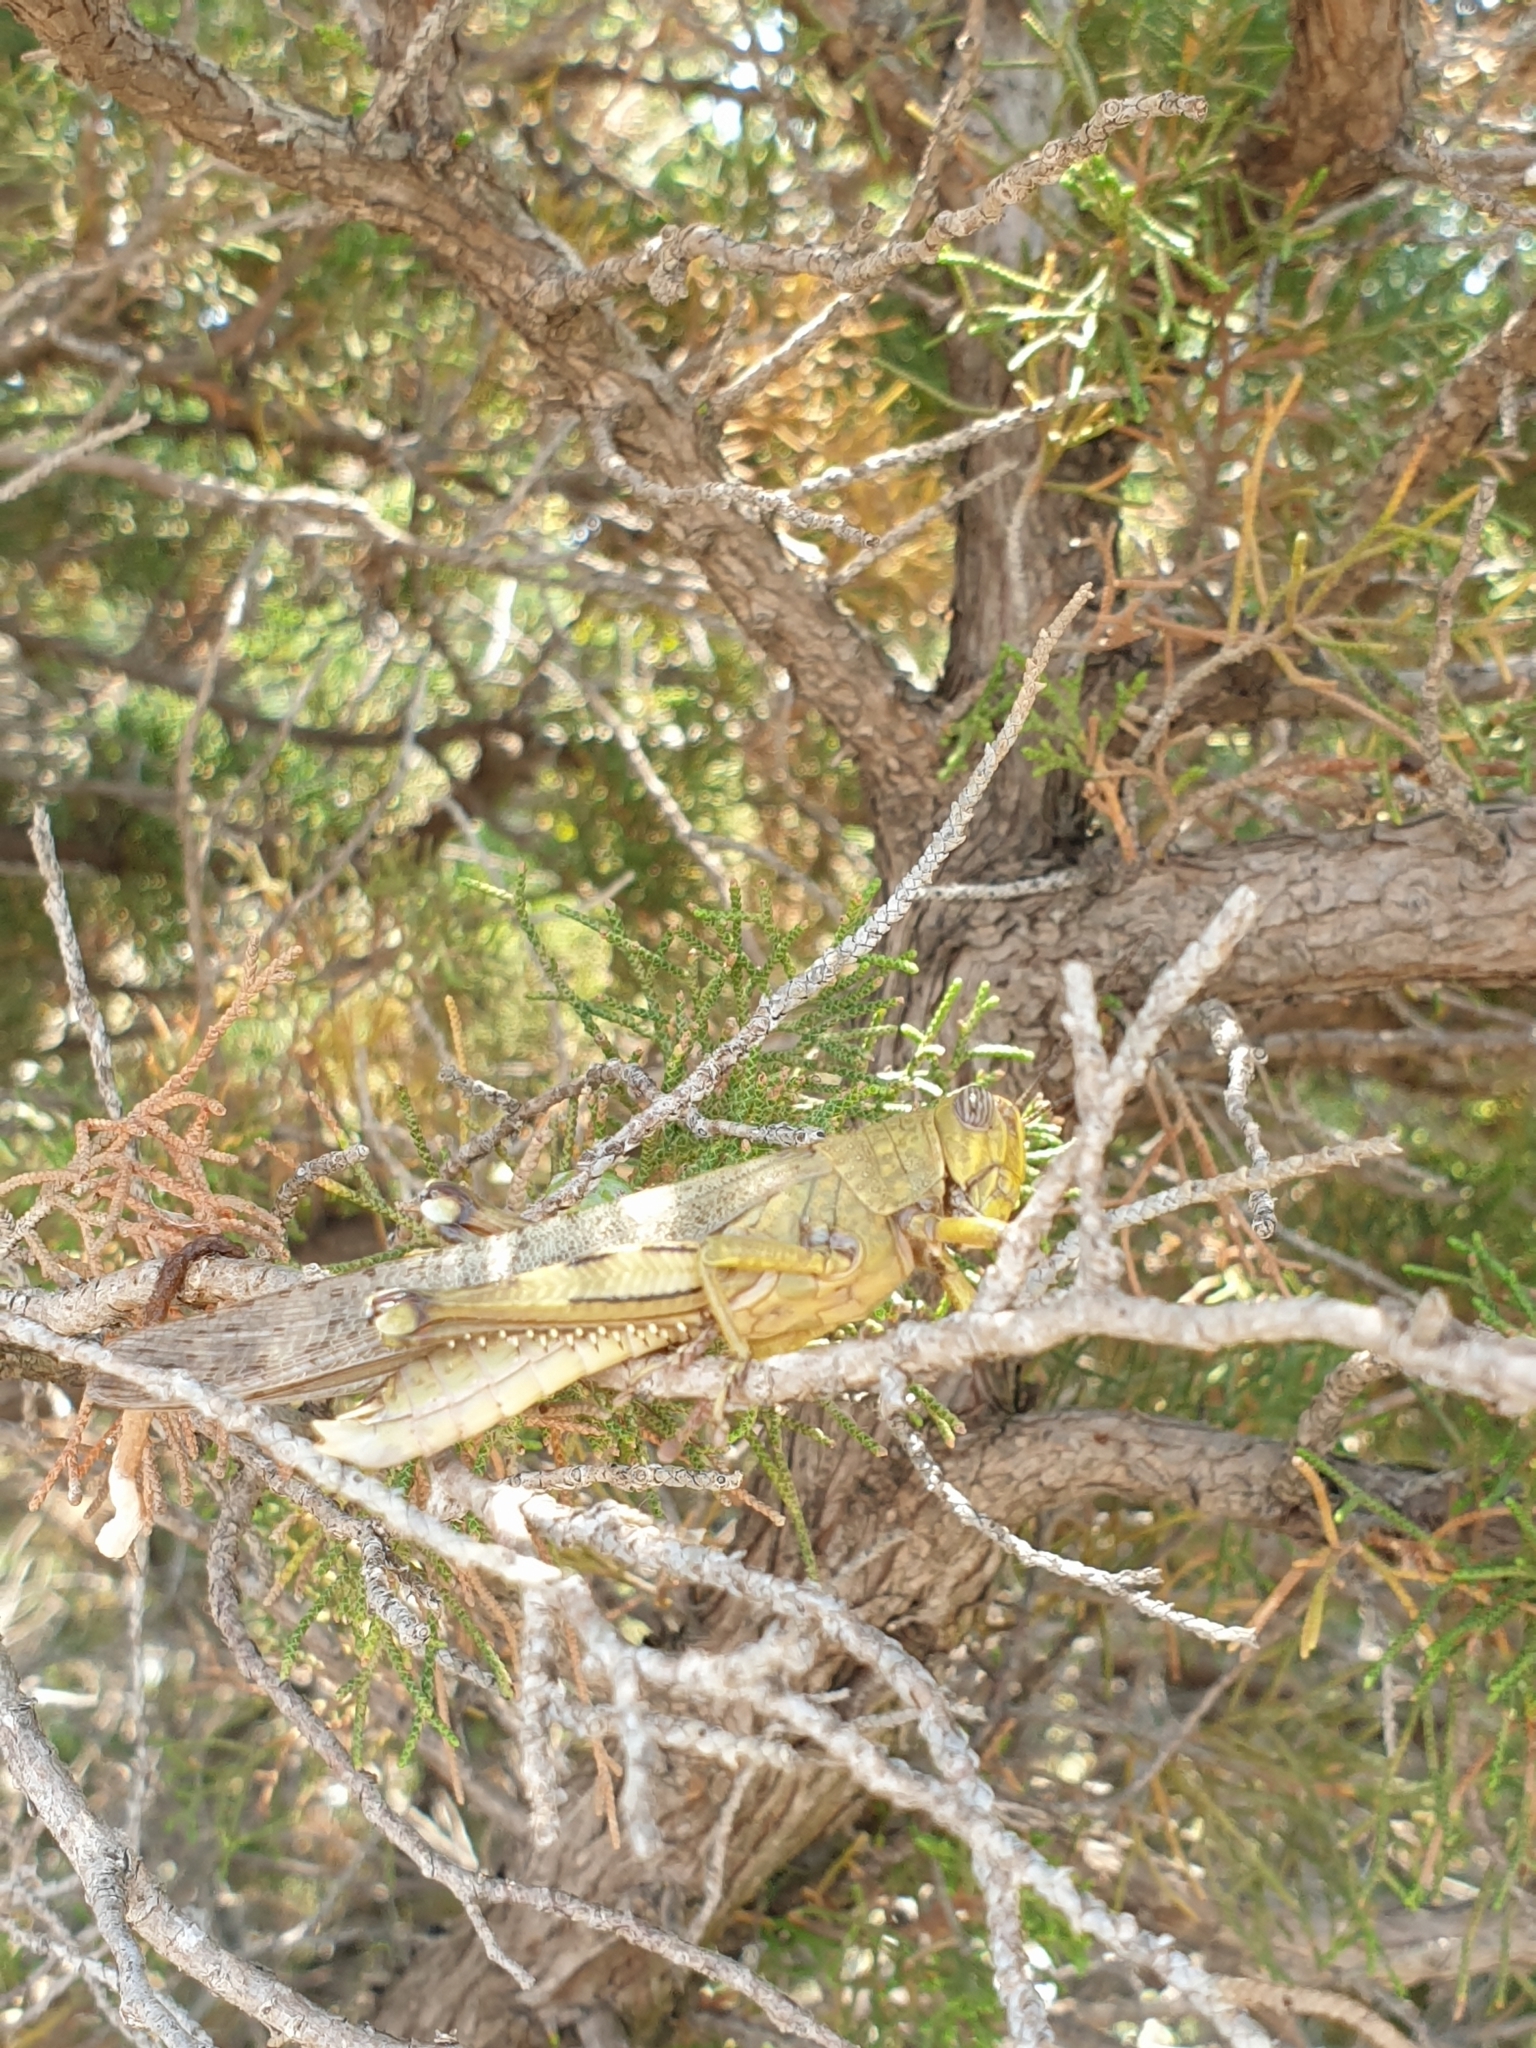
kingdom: Animalia
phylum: Arthropoda
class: Insecta
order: Orthoptera
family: Acrididae
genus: Anacridium
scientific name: Anacridium aegyptium
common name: Egyptian grasshopper
